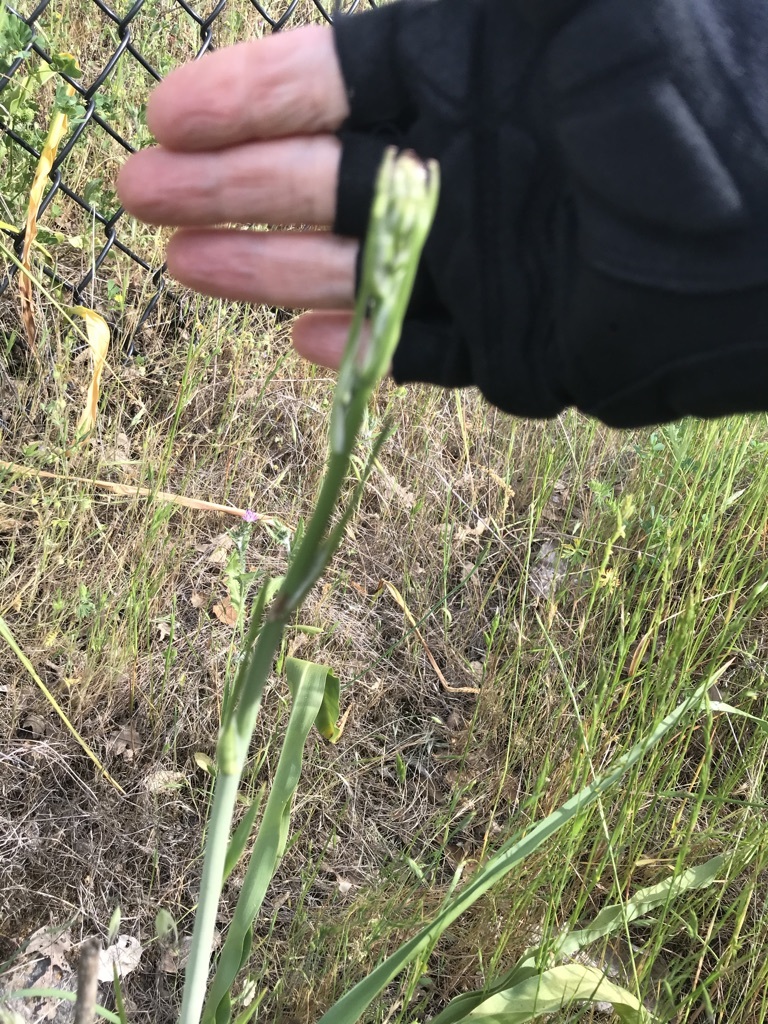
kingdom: Plantae
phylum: Tracheophyta
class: Liliopsida
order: Asparagales
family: Asparagaceae
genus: Chlorogalum
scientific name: Chlorogalum pomeridianum
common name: Amole
